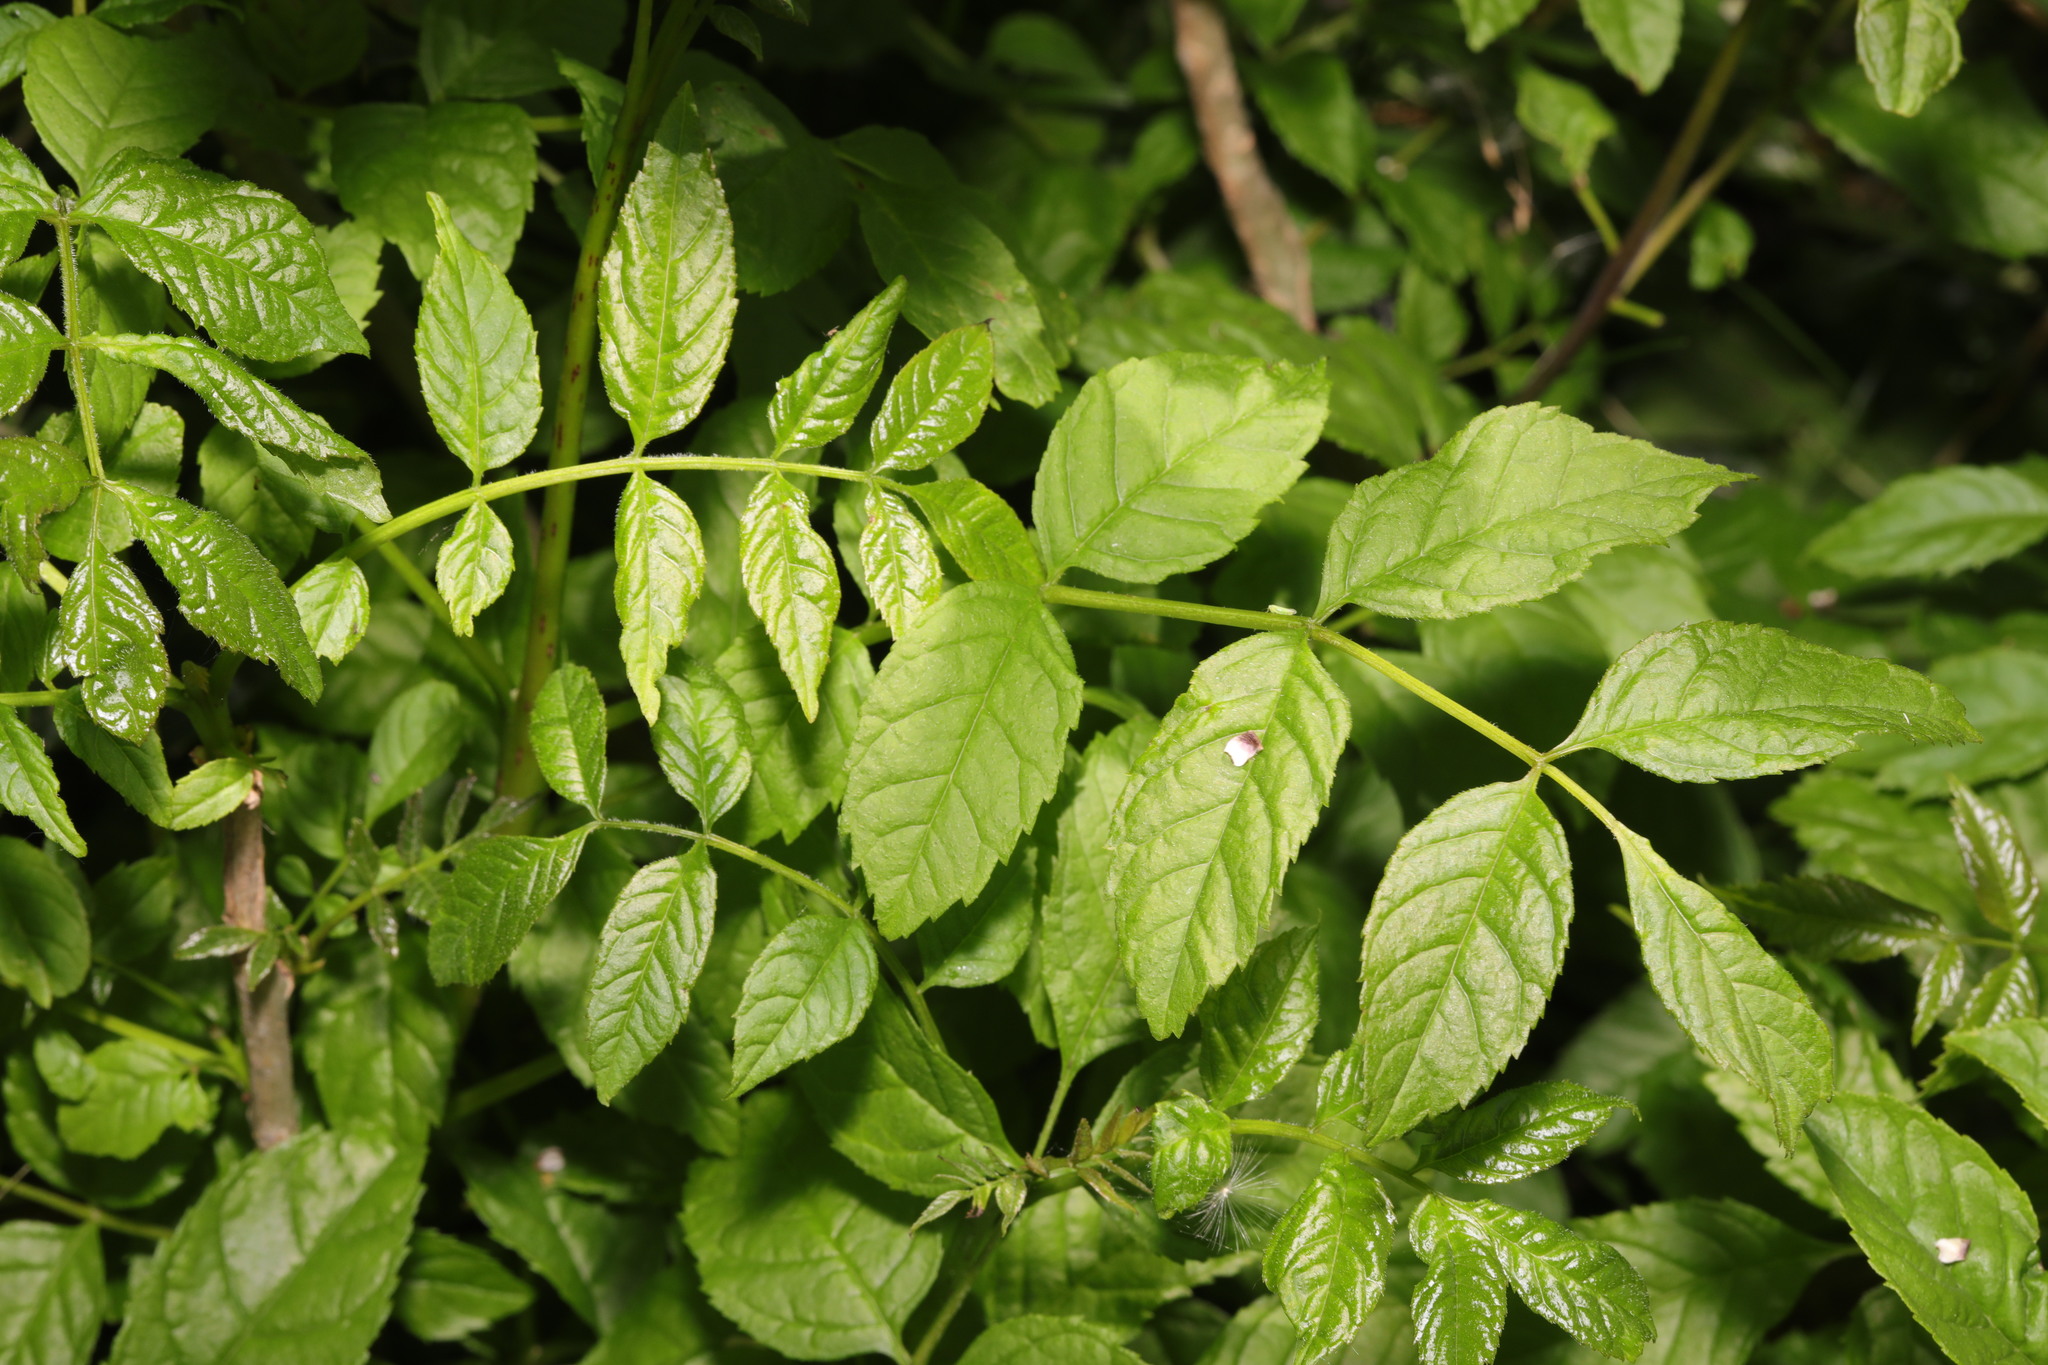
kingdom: Plantae
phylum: Tracheophyta
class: Magnoliopsida
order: Lamiales
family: Oleaceae
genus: Fraxinus
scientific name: Fraxinus excelsior
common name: European ash
